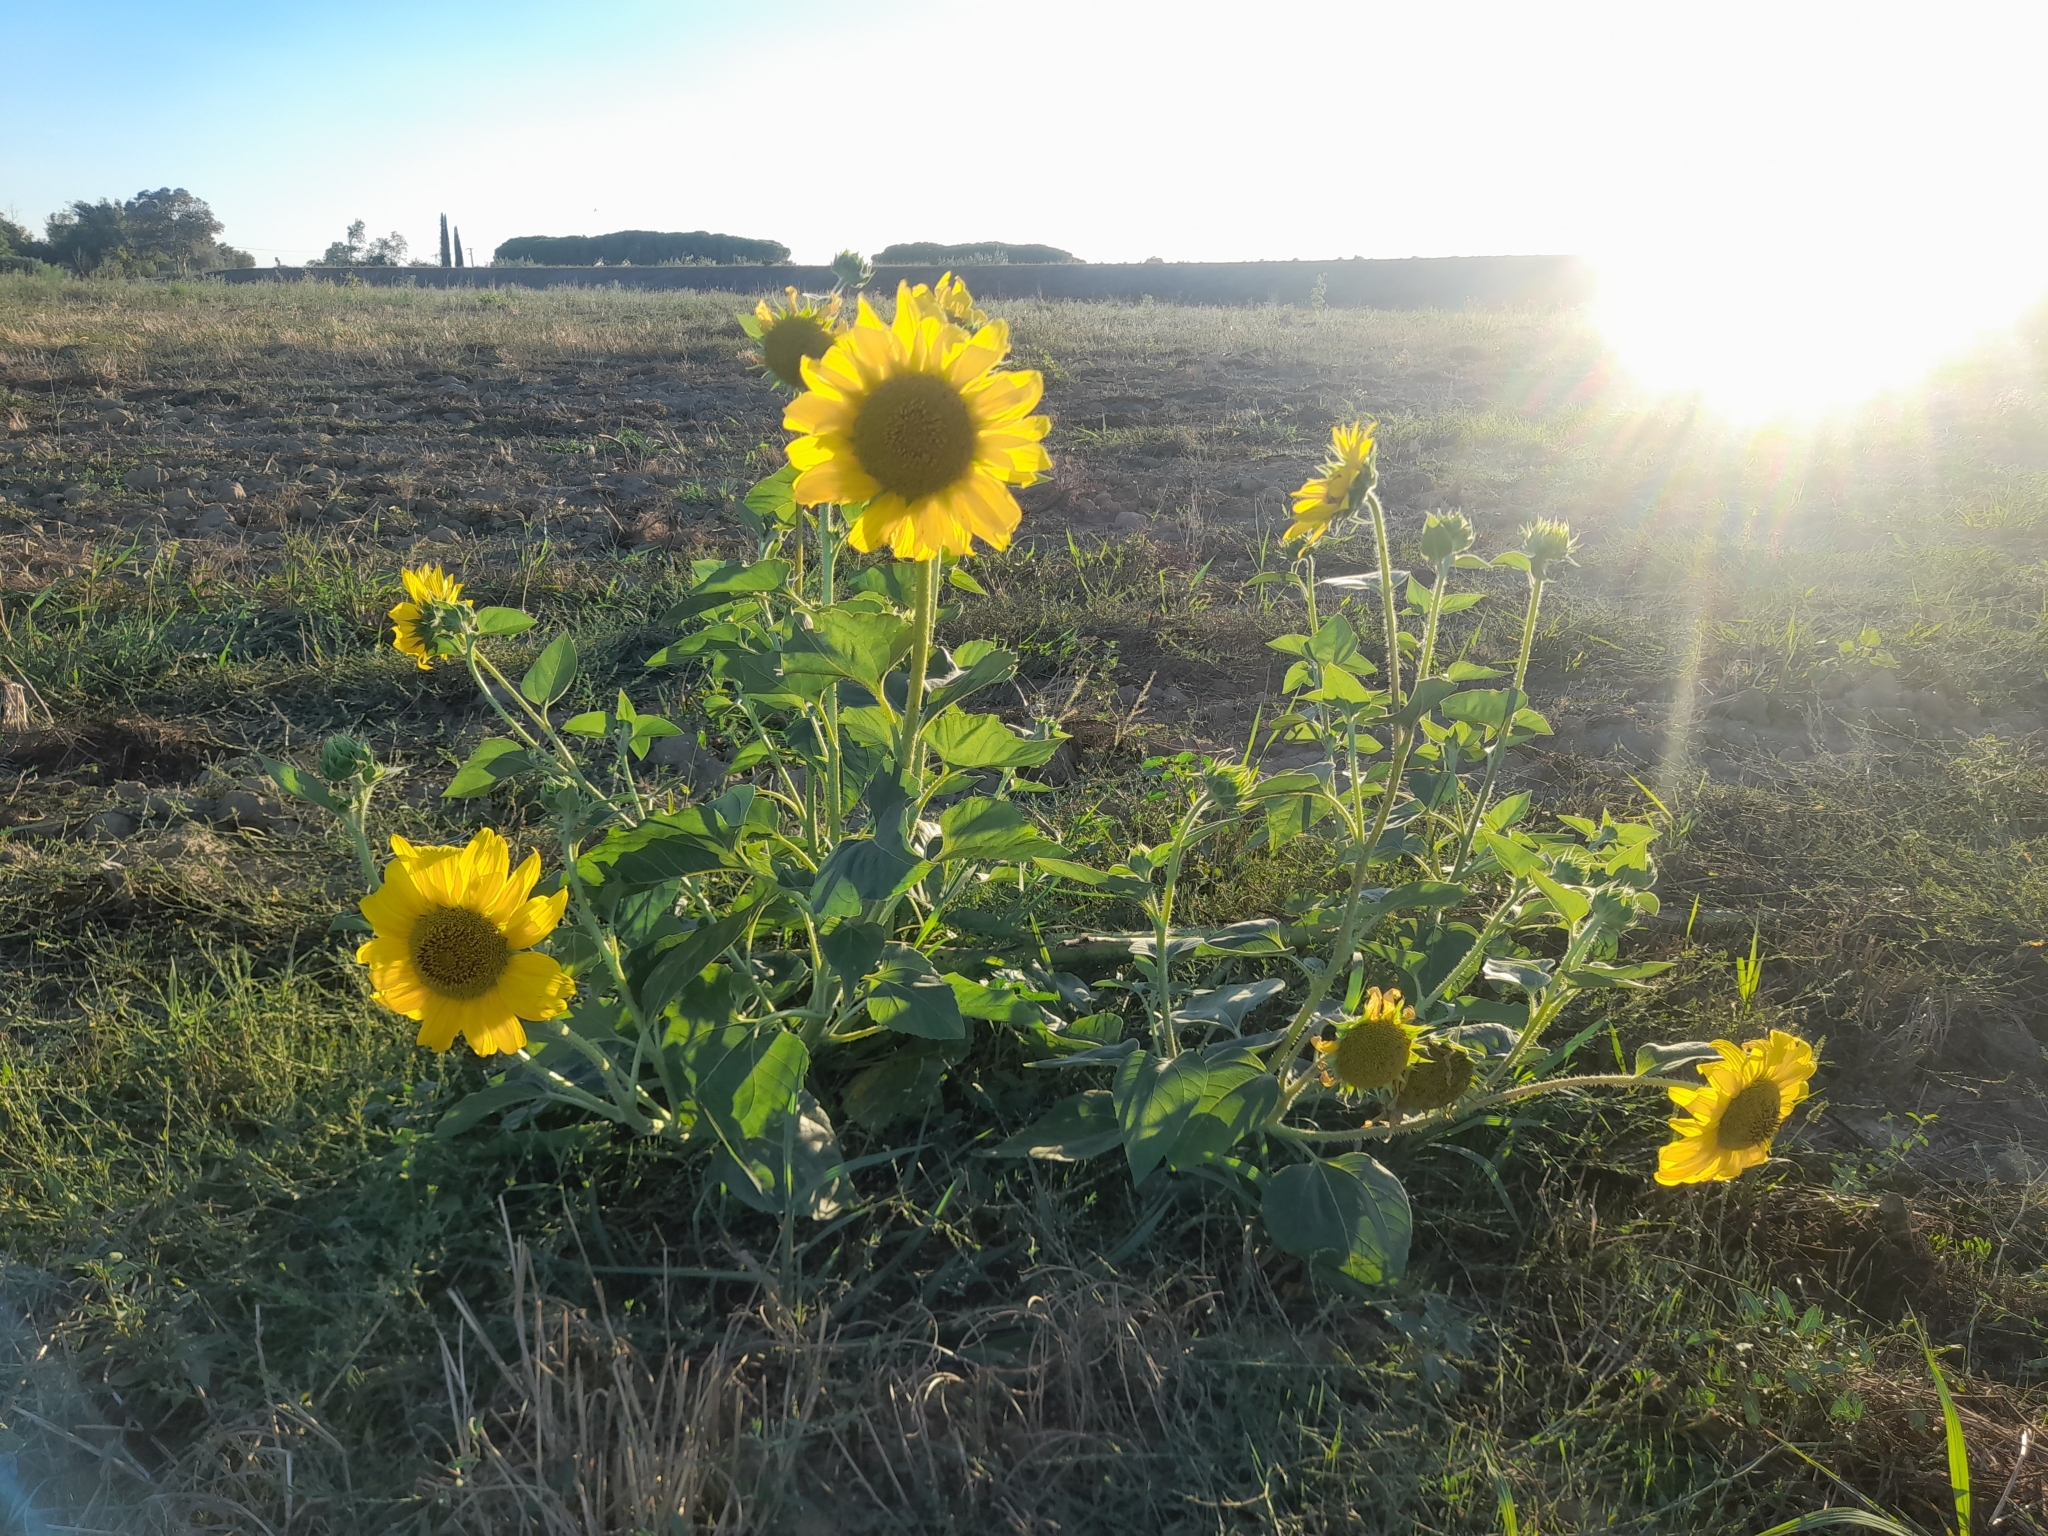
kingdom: Plantae
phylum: Tracheophyta
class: Magnoliopsida
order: Asterales
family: Asteraceae
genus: Helianthus
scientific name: Helianthus annuus
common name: Sunflower
